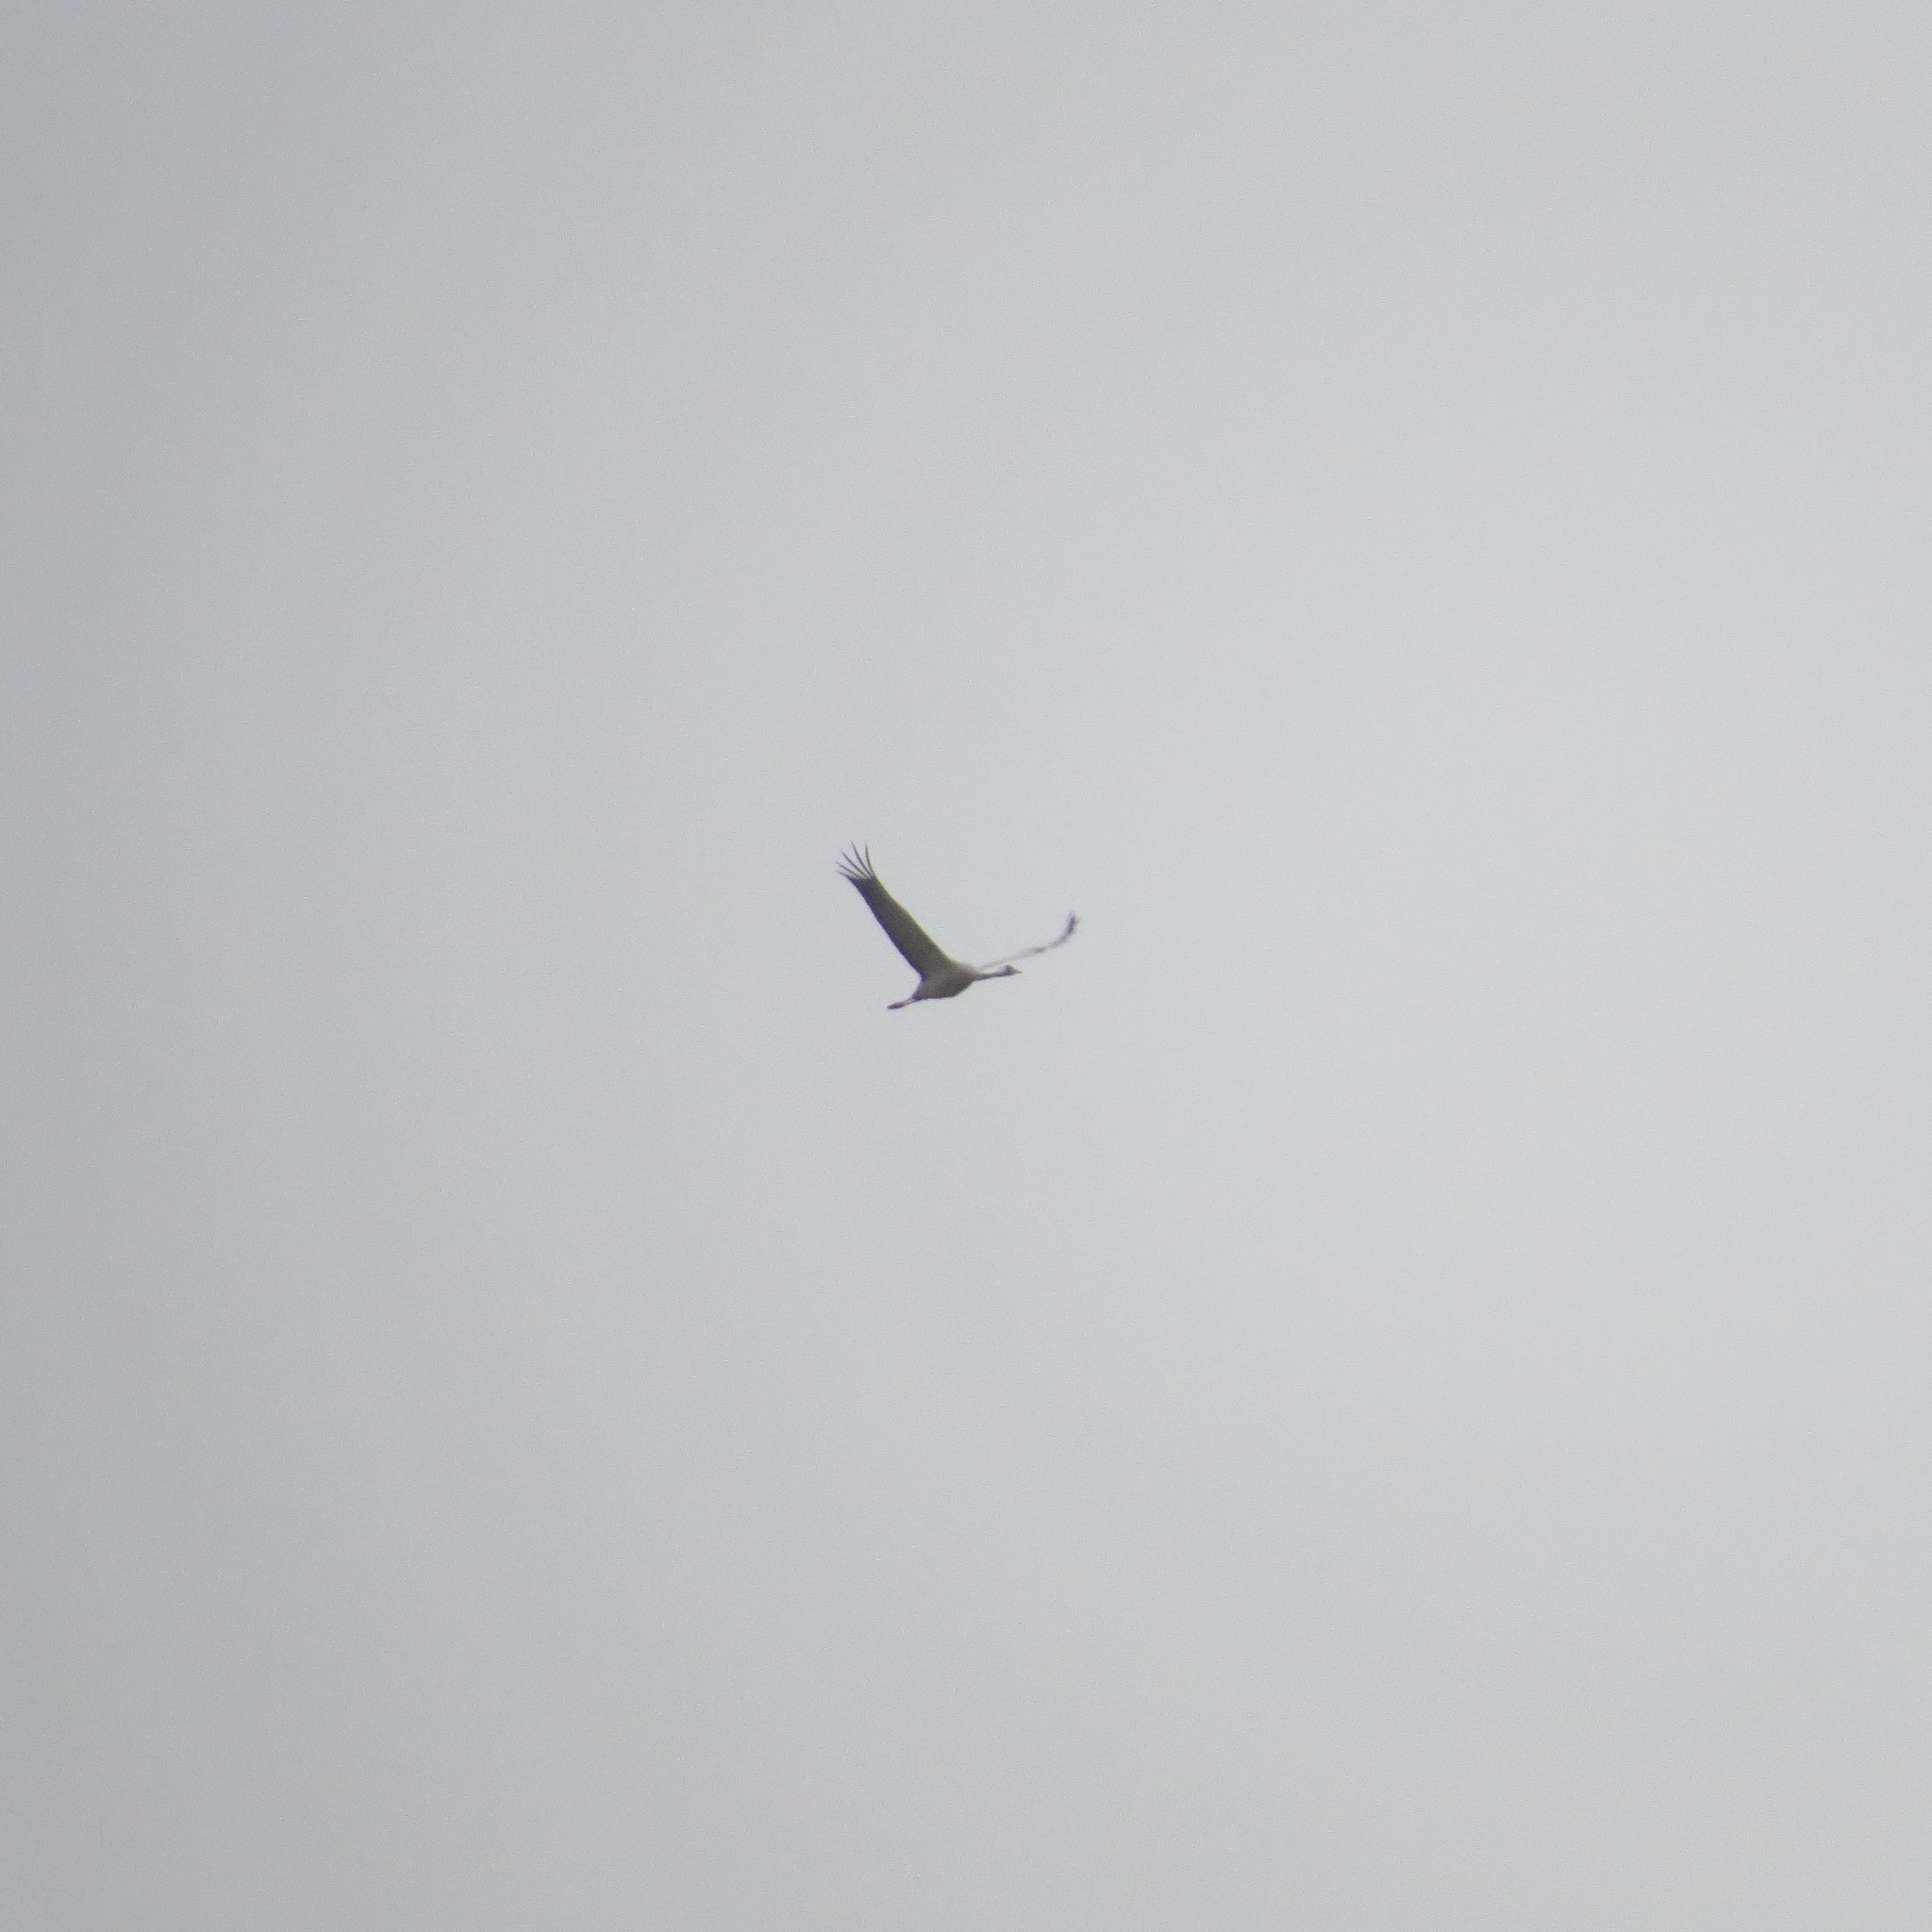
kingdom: Animalia
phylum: Chordata
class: Aves
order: Gruiformes
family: Gruidae
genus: Grus
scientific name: Grus grus
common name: Common crane
